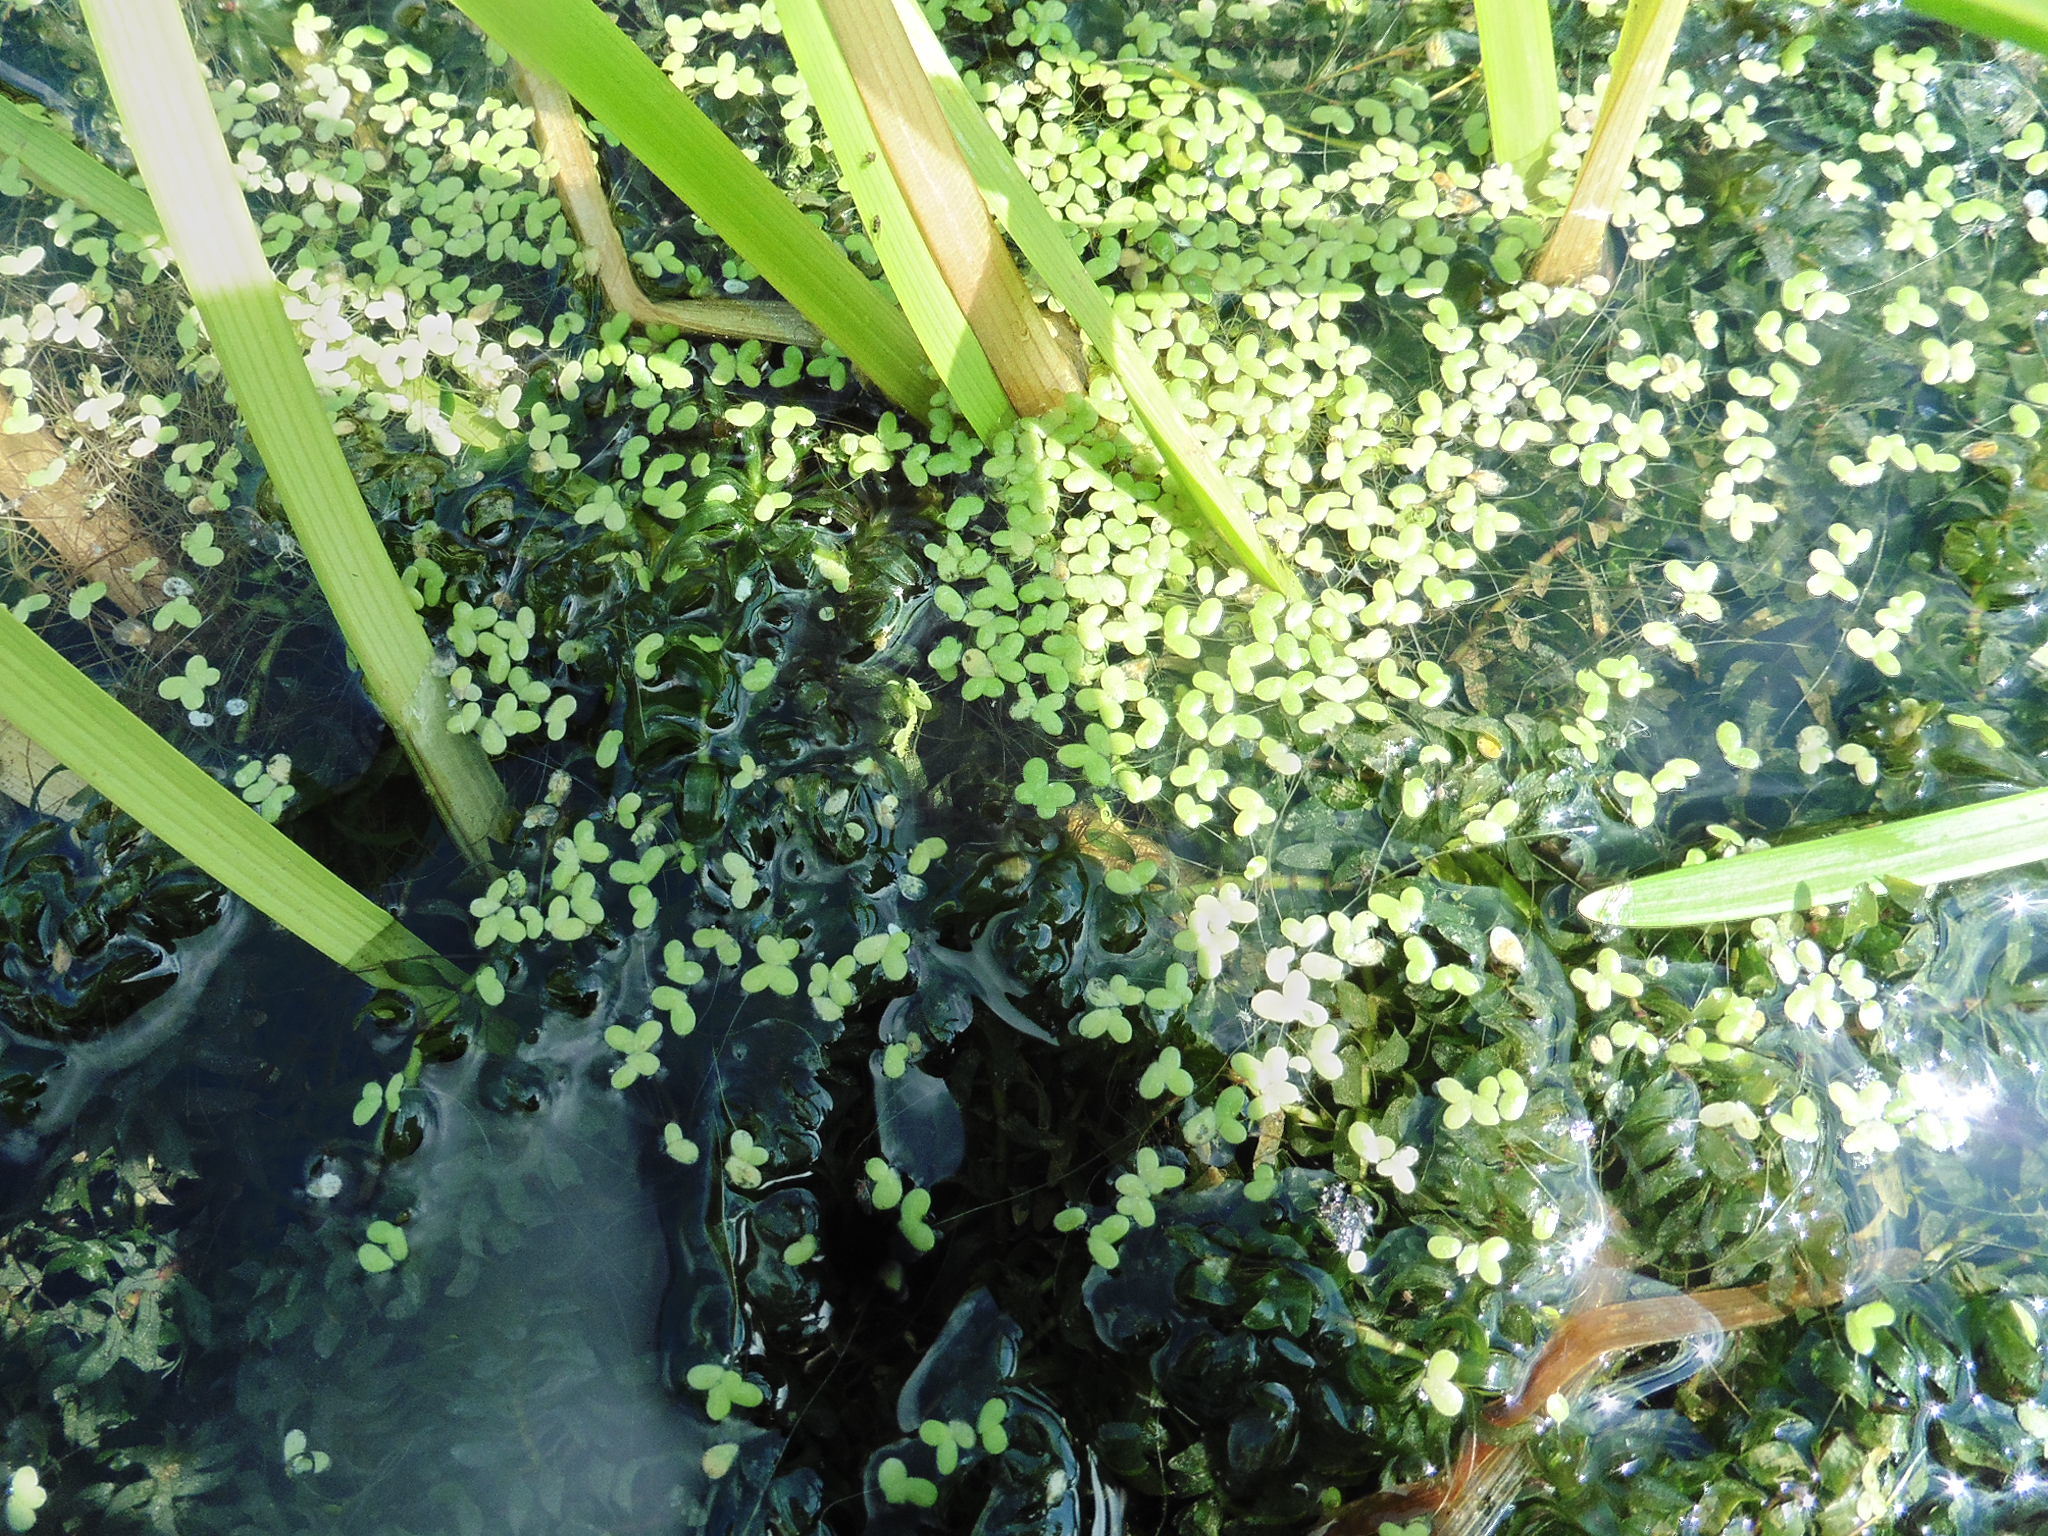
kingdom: Plantae
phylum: Tracheophyta
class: Liliopsida
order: Alismatales
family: Araceae
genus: Lemna
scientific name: Lemna minor
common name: Common duckweed
